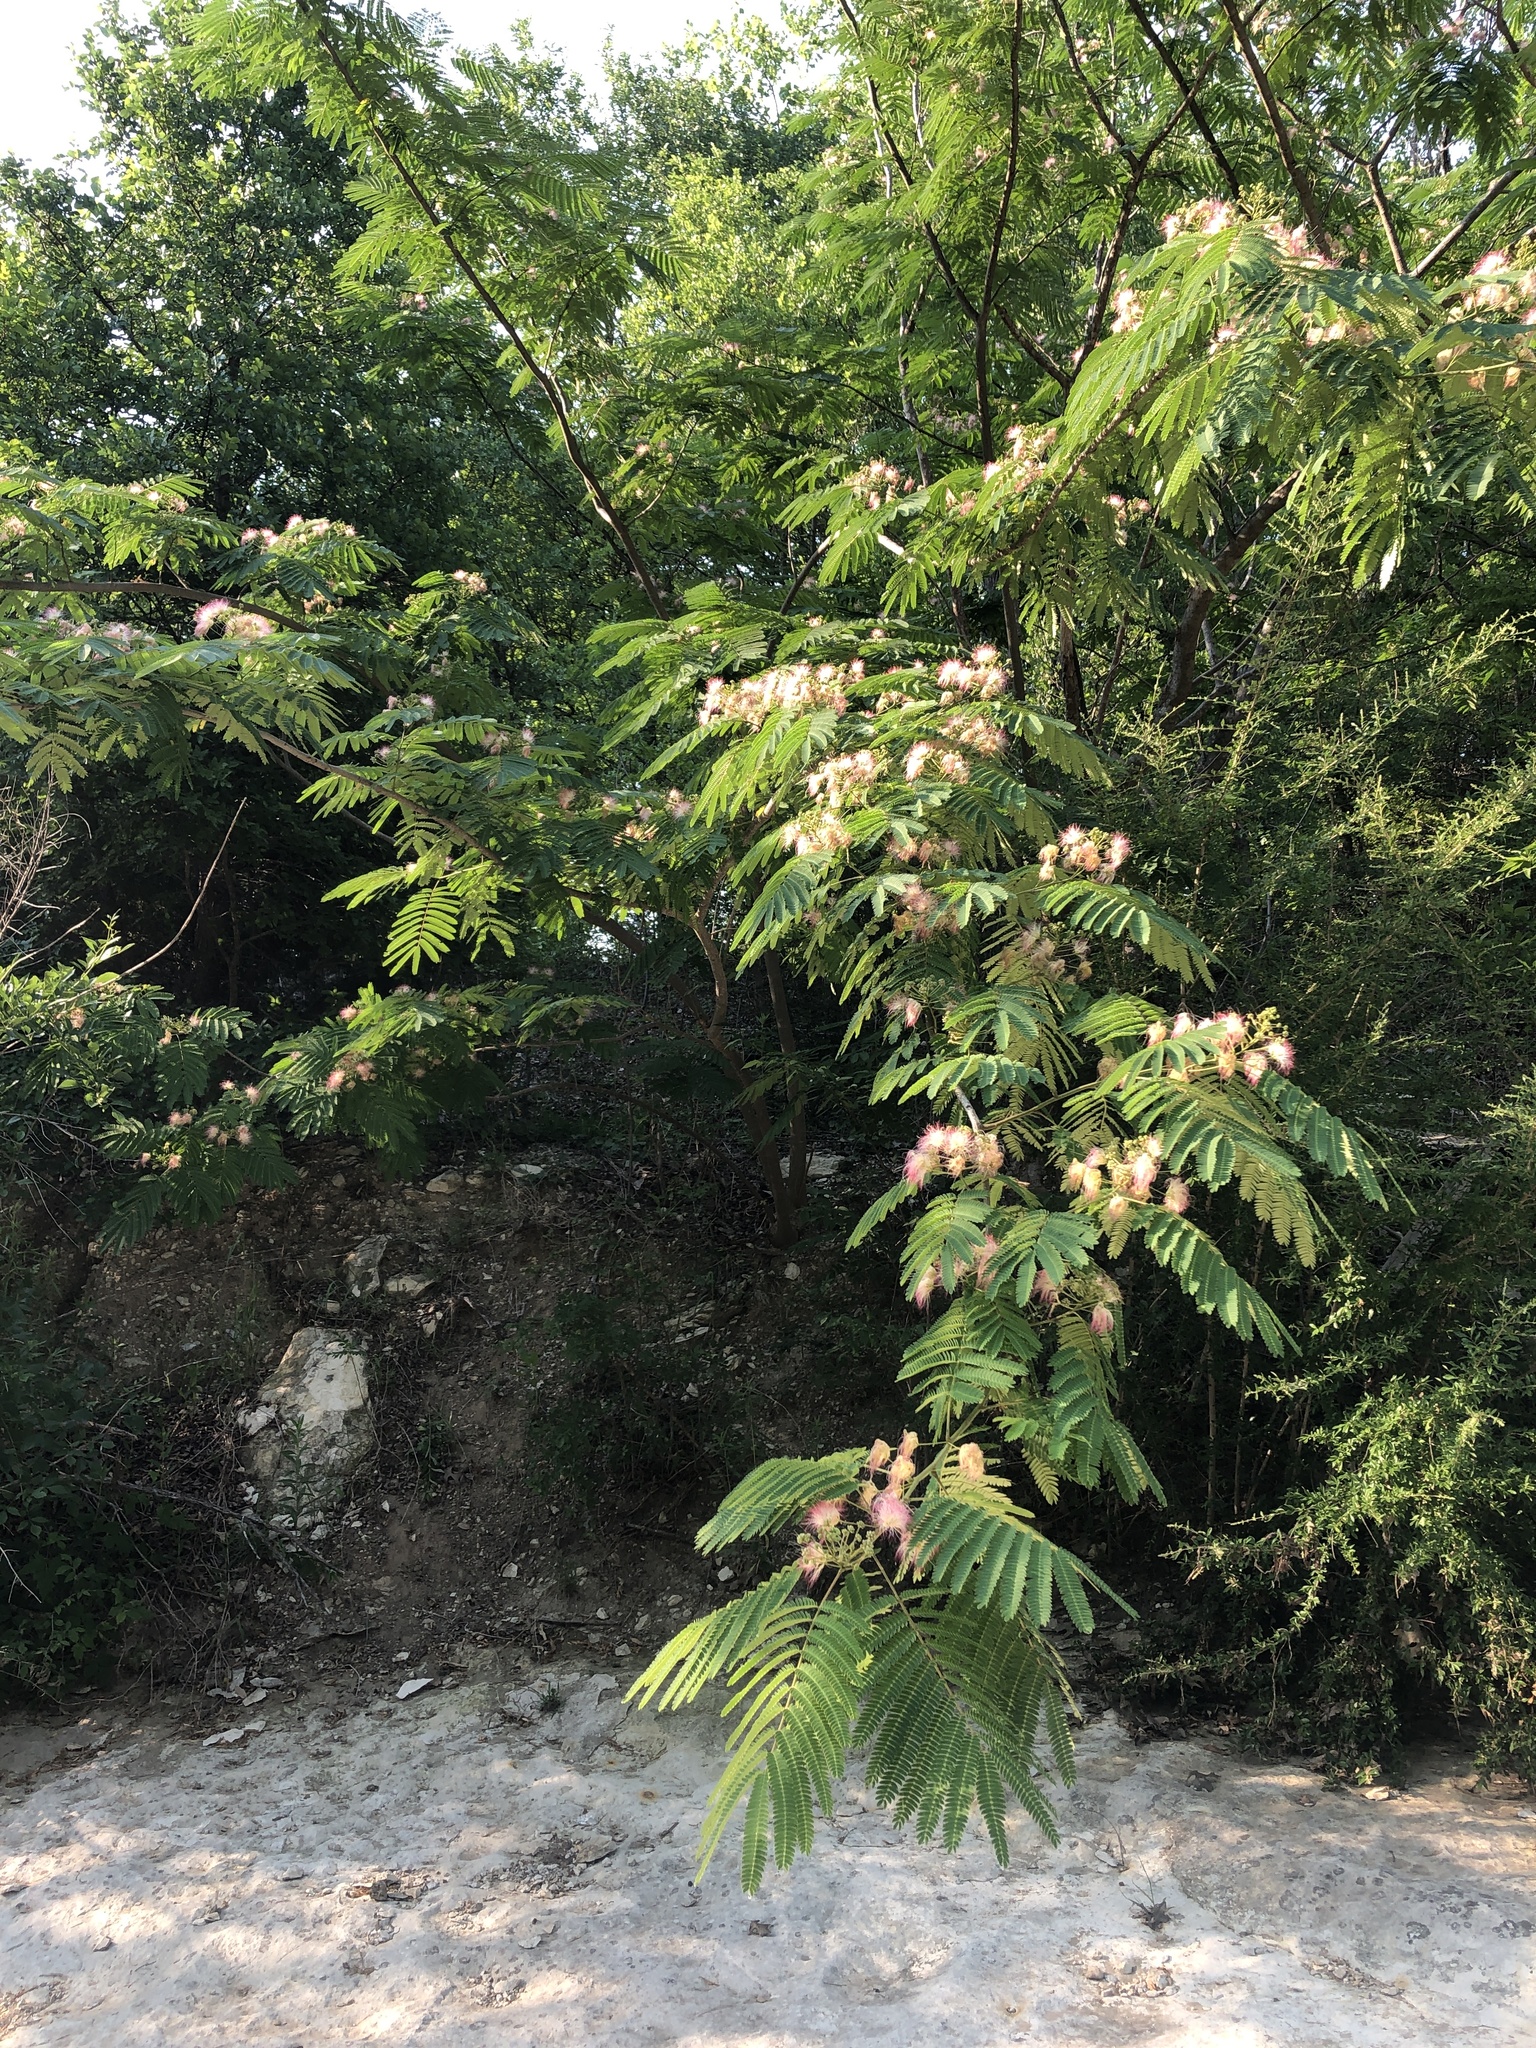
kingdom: Plantae
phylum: Tracheophyta
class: Magnoliopsida
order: Fabales
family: Fabaceae
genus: Albizia
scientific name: Albizia julibrissin
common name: Silktree
